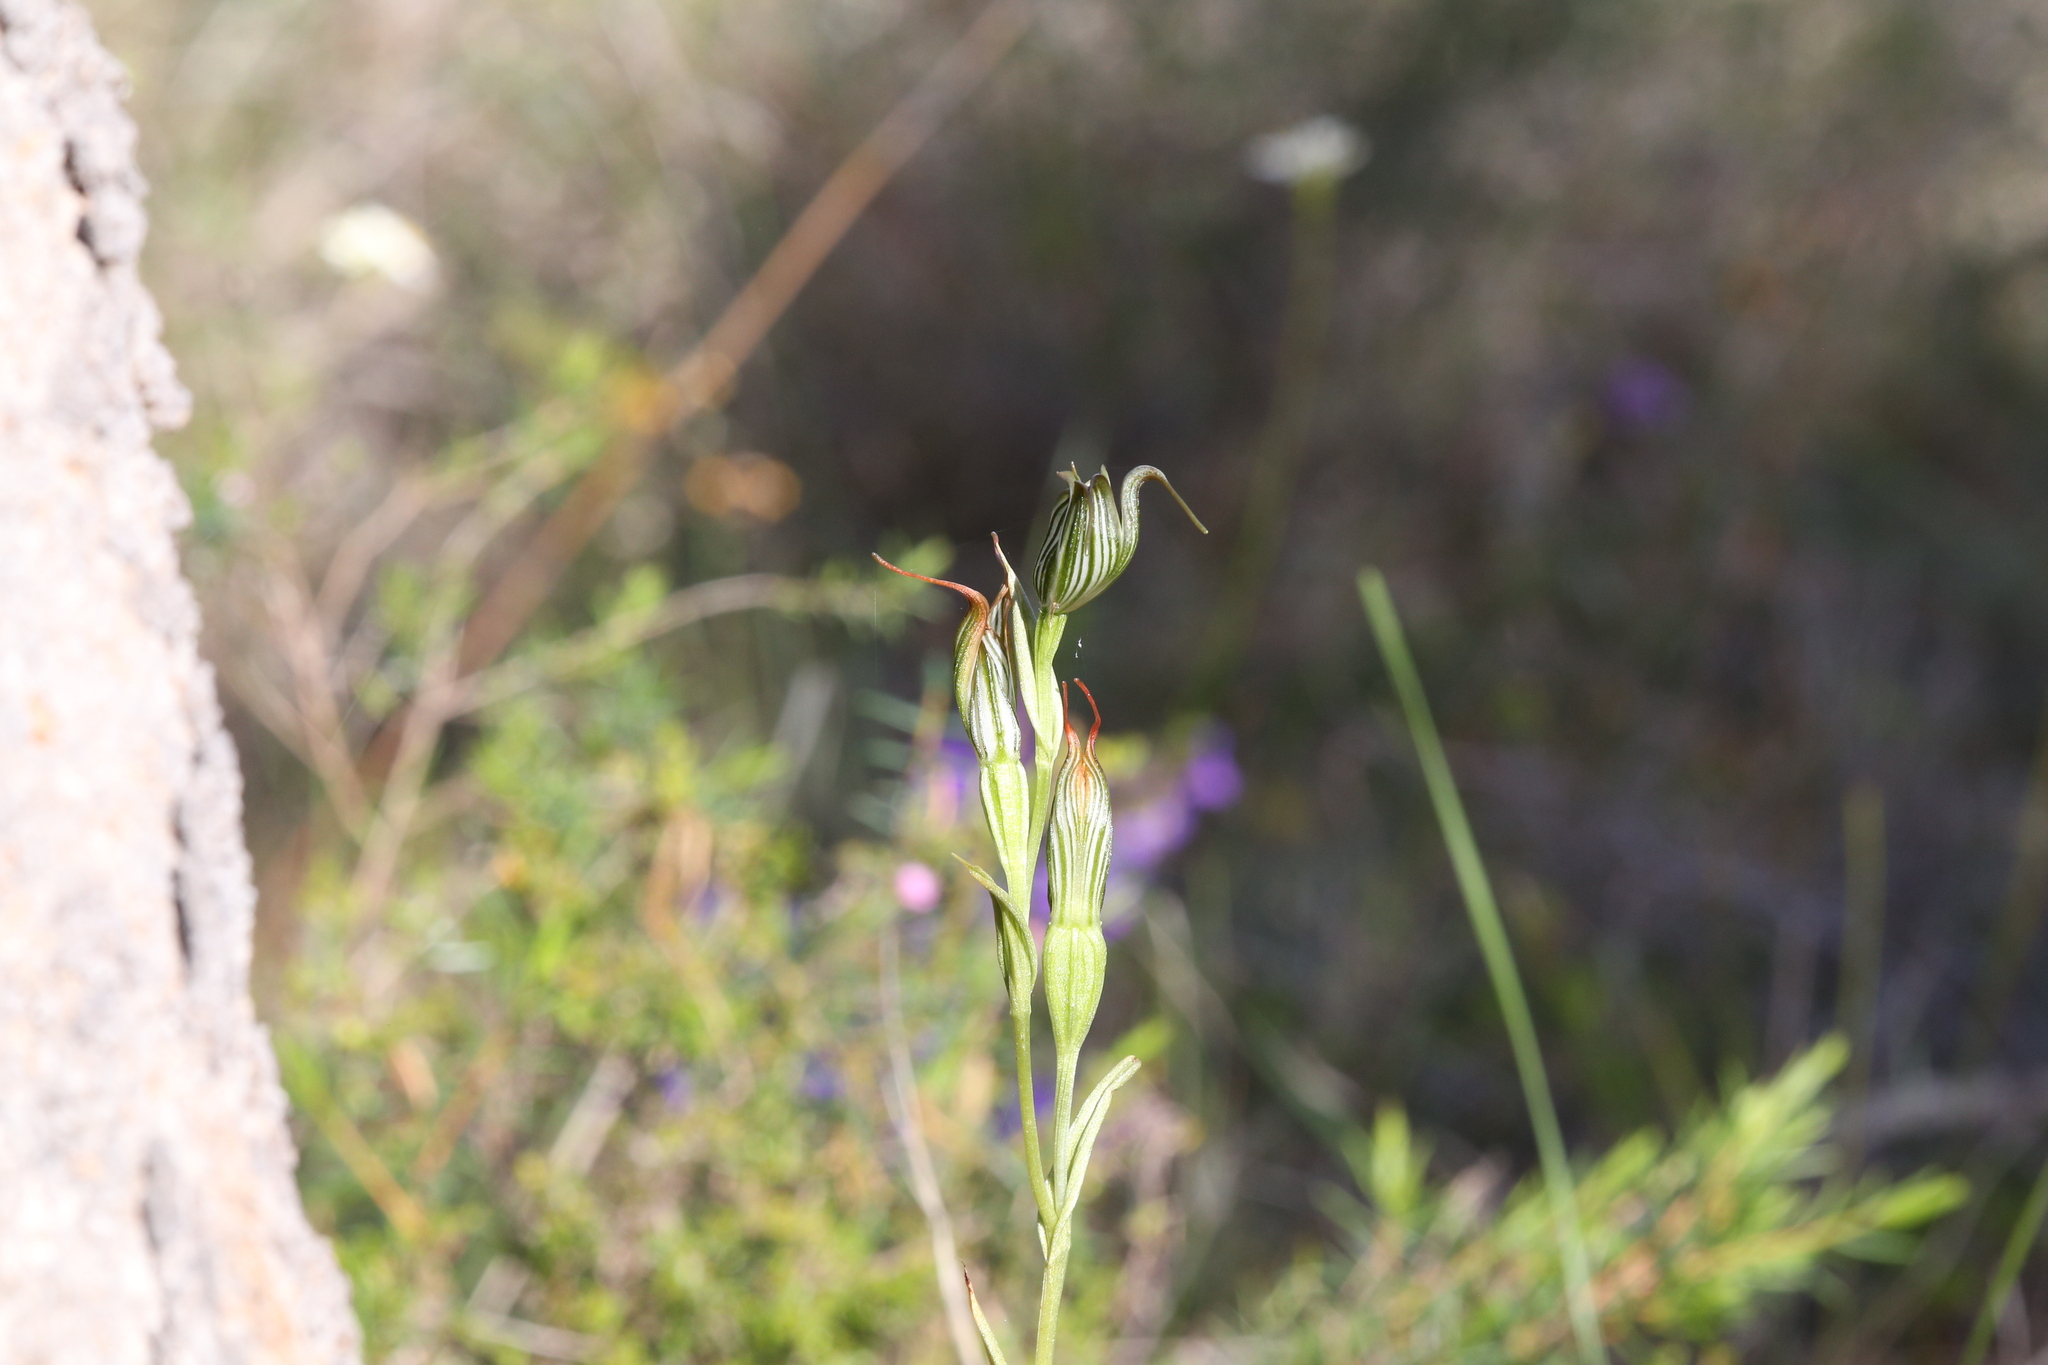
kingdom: Plantae
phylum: Tracheophyta
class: Liliopsida
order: Asparagales
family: Orchidaceae
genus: Pterostylis
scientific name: Pterostylis recurva
